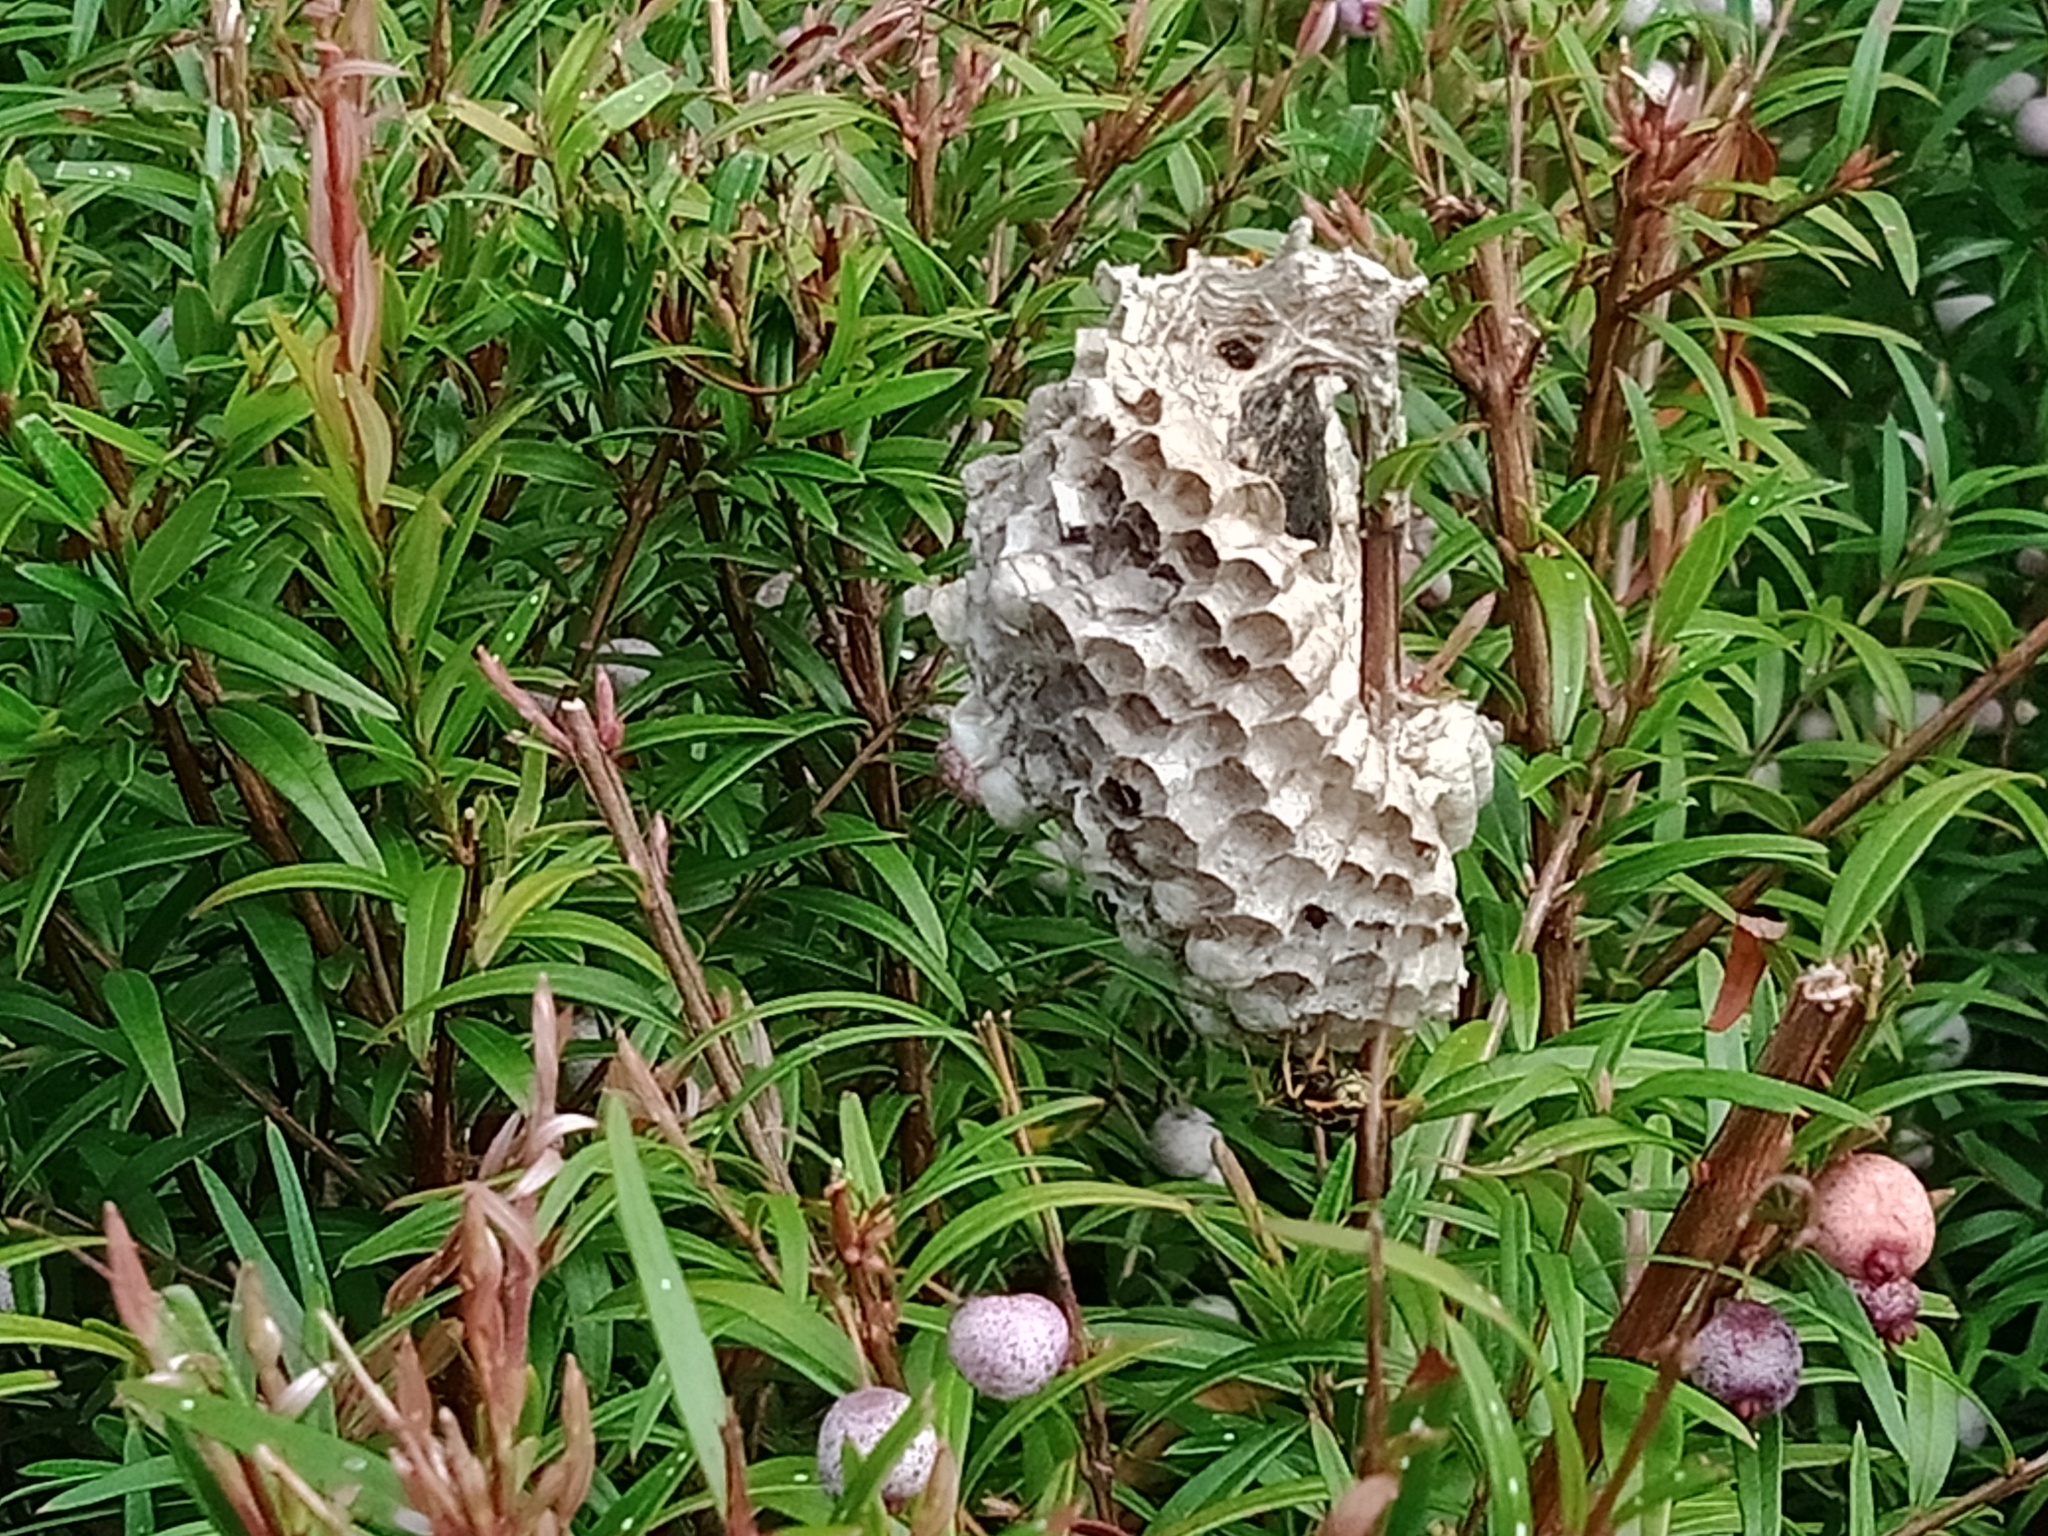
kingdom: Animalia
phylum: Arthropoda
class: Insecta
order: Hymenoptera
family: Eumenidae
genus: Polistes
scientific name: Polistes chinensis
